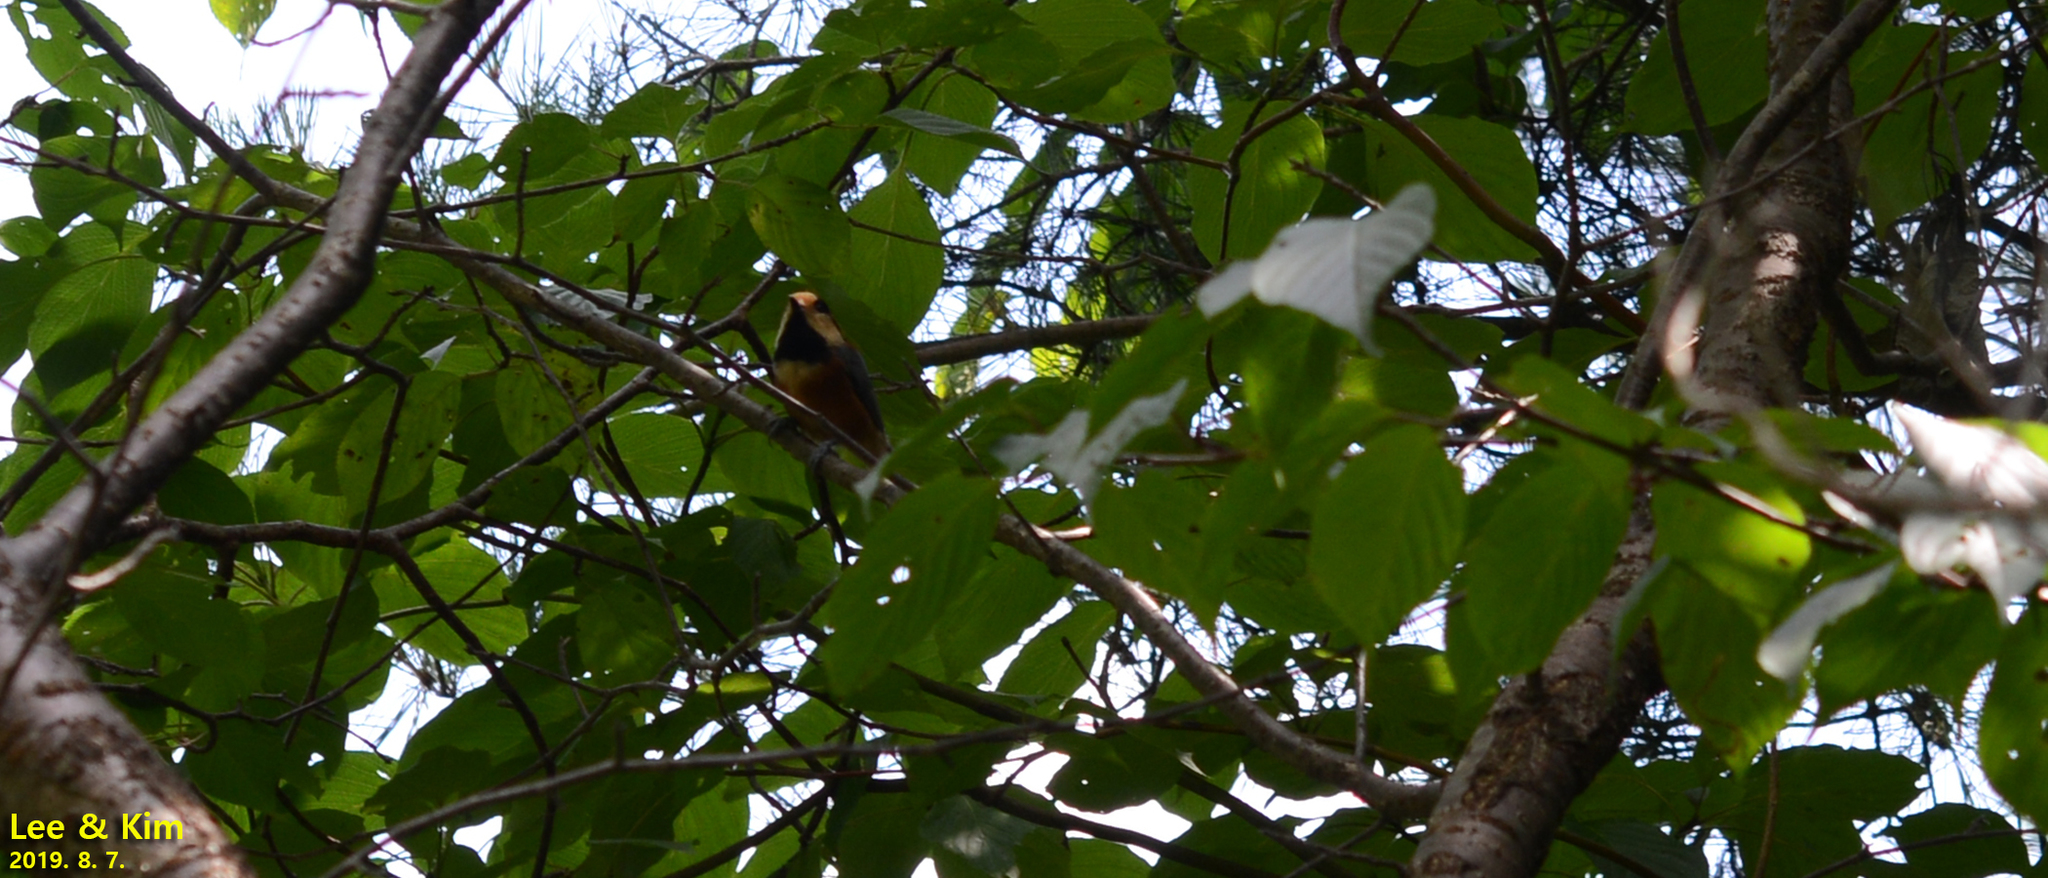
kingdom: Animalia
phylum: Chordata
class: Aves
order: Passeriformes
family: Paridae
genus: Poecile
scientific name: Poecile varius
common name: Varied tit
